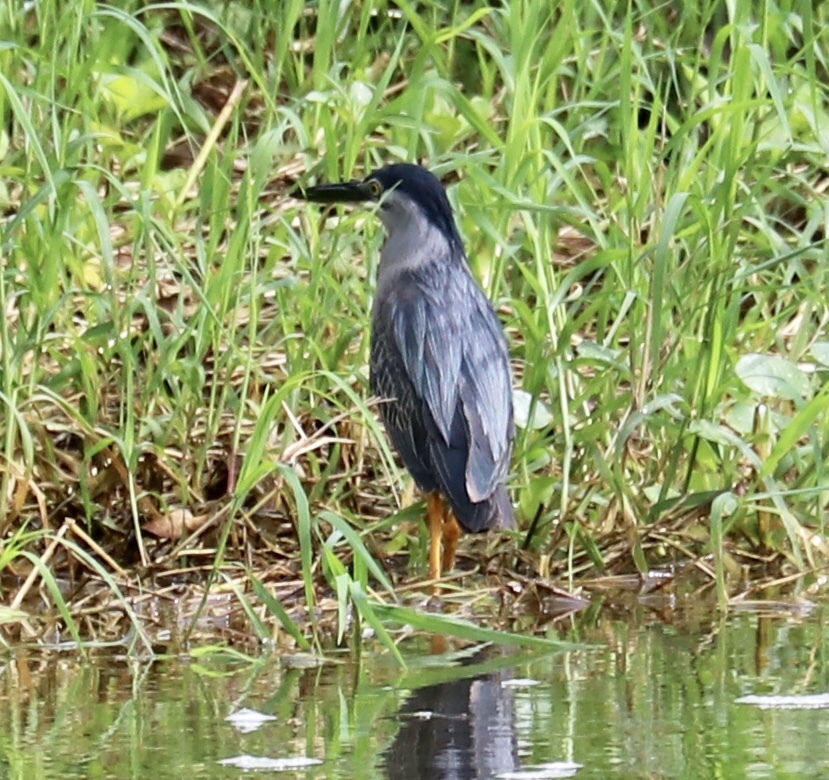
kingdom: Animalia
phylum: Chordata
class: Aves
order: Pelecaniformes
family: Ardeidae
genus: Butorides
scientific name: Butorides striata
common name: Striated heron
